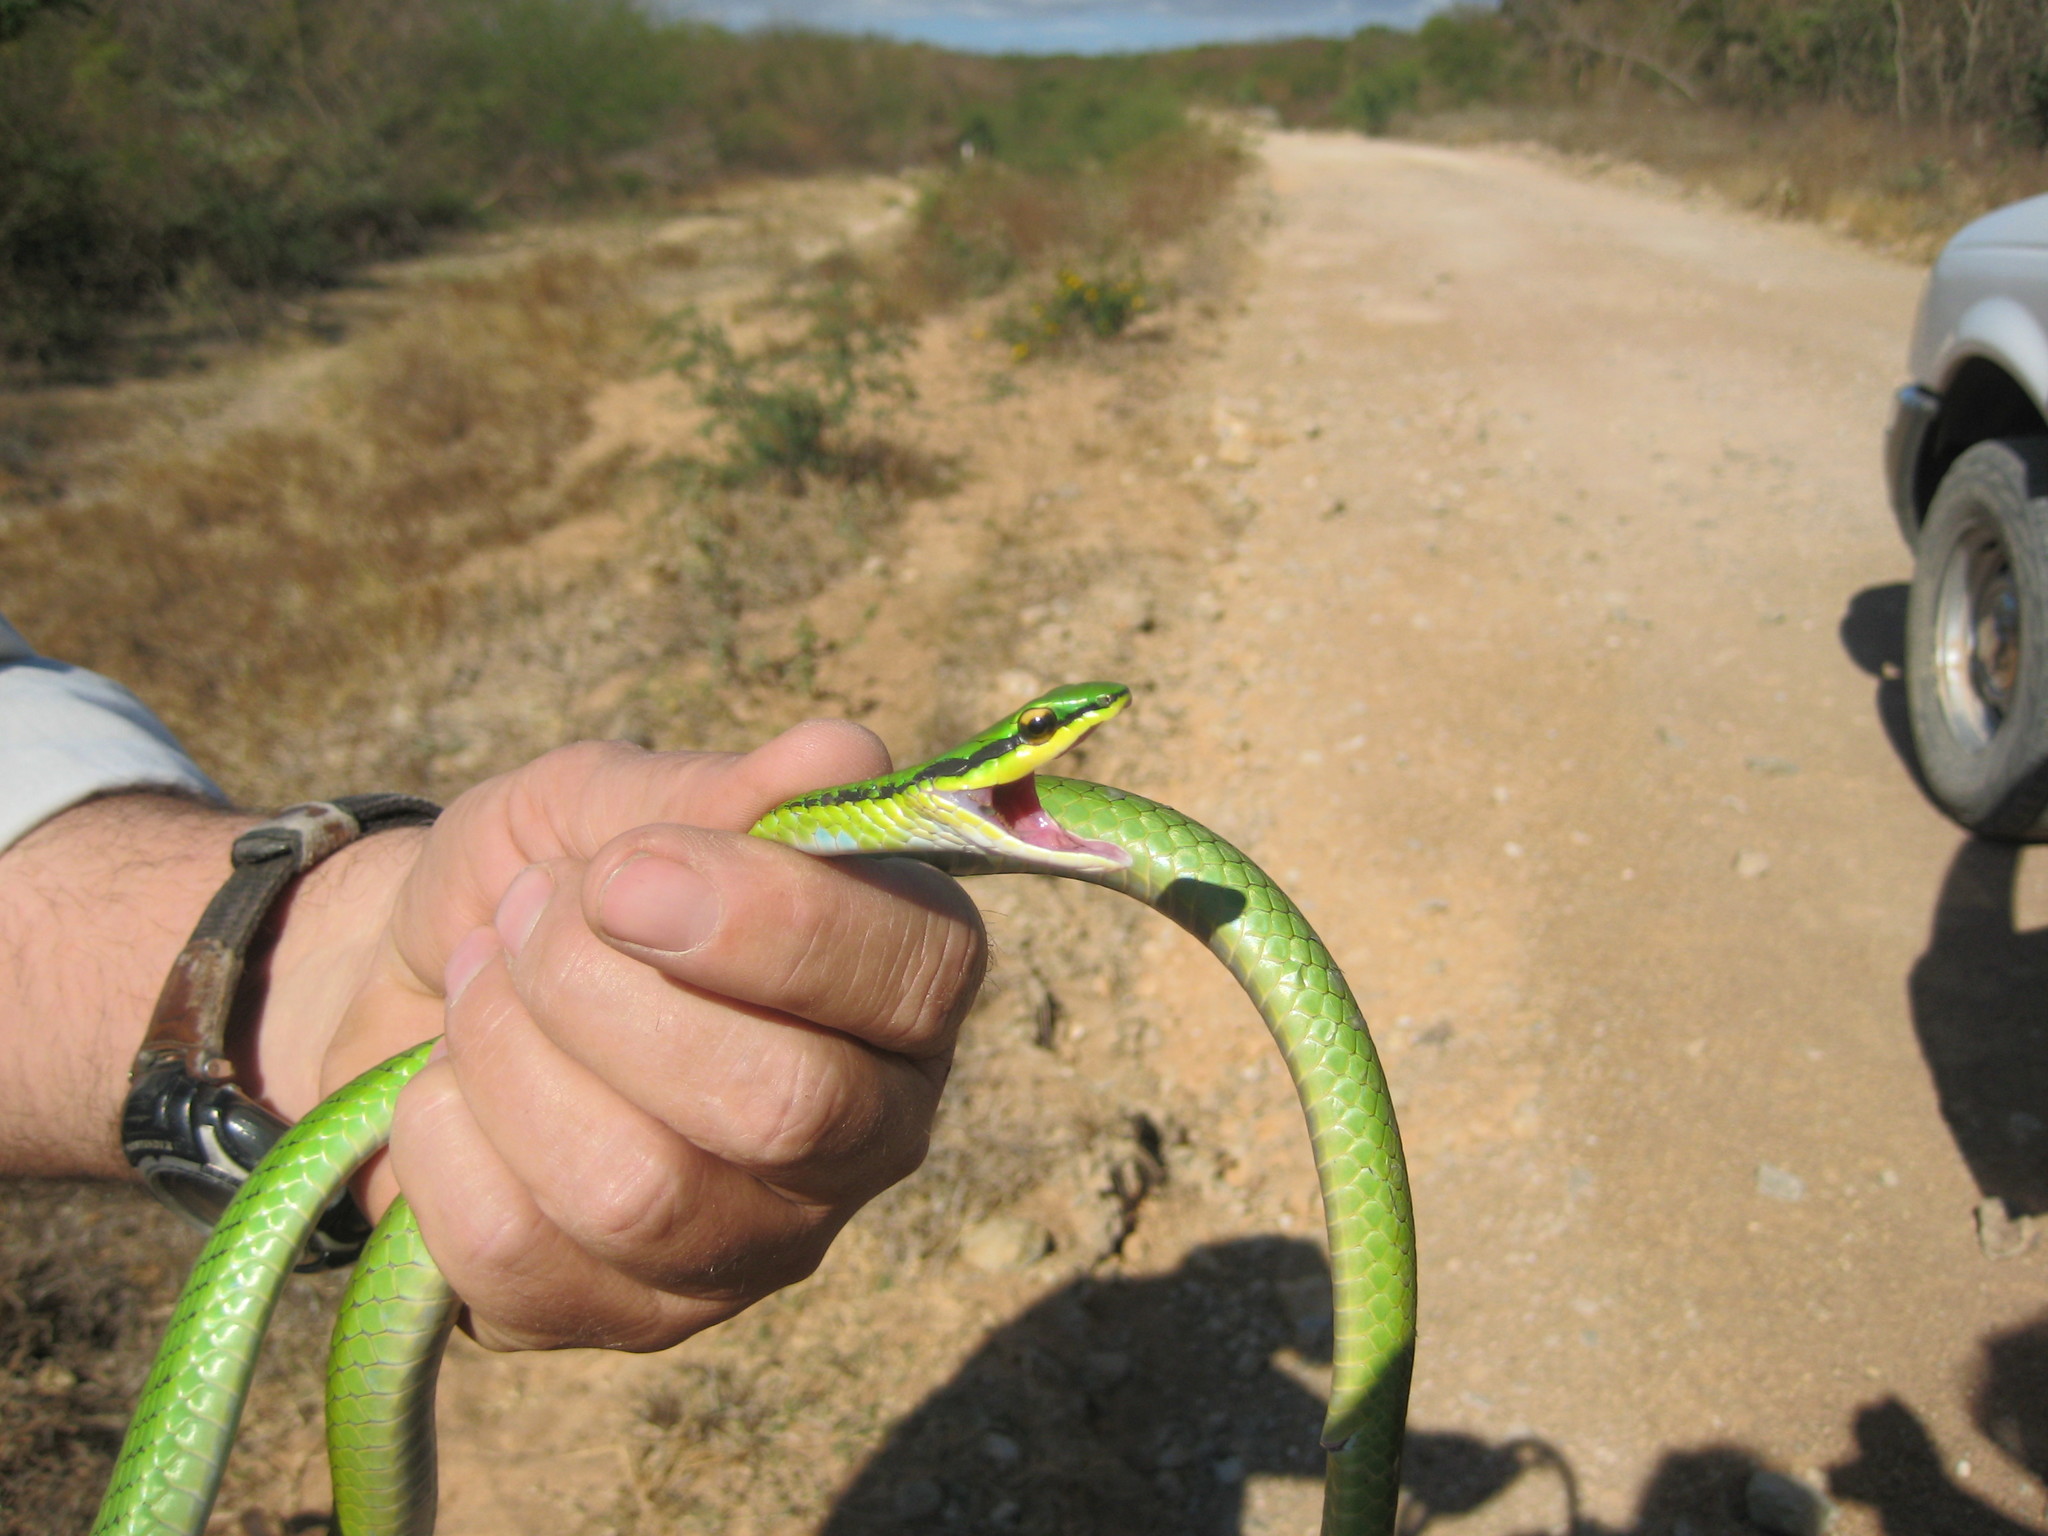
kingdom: Animalia
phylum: Chordata
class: Squamata
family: Colubridae
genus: Leptophis
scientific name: Leptophis diplotropis
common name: Pacific coast parrot snake
